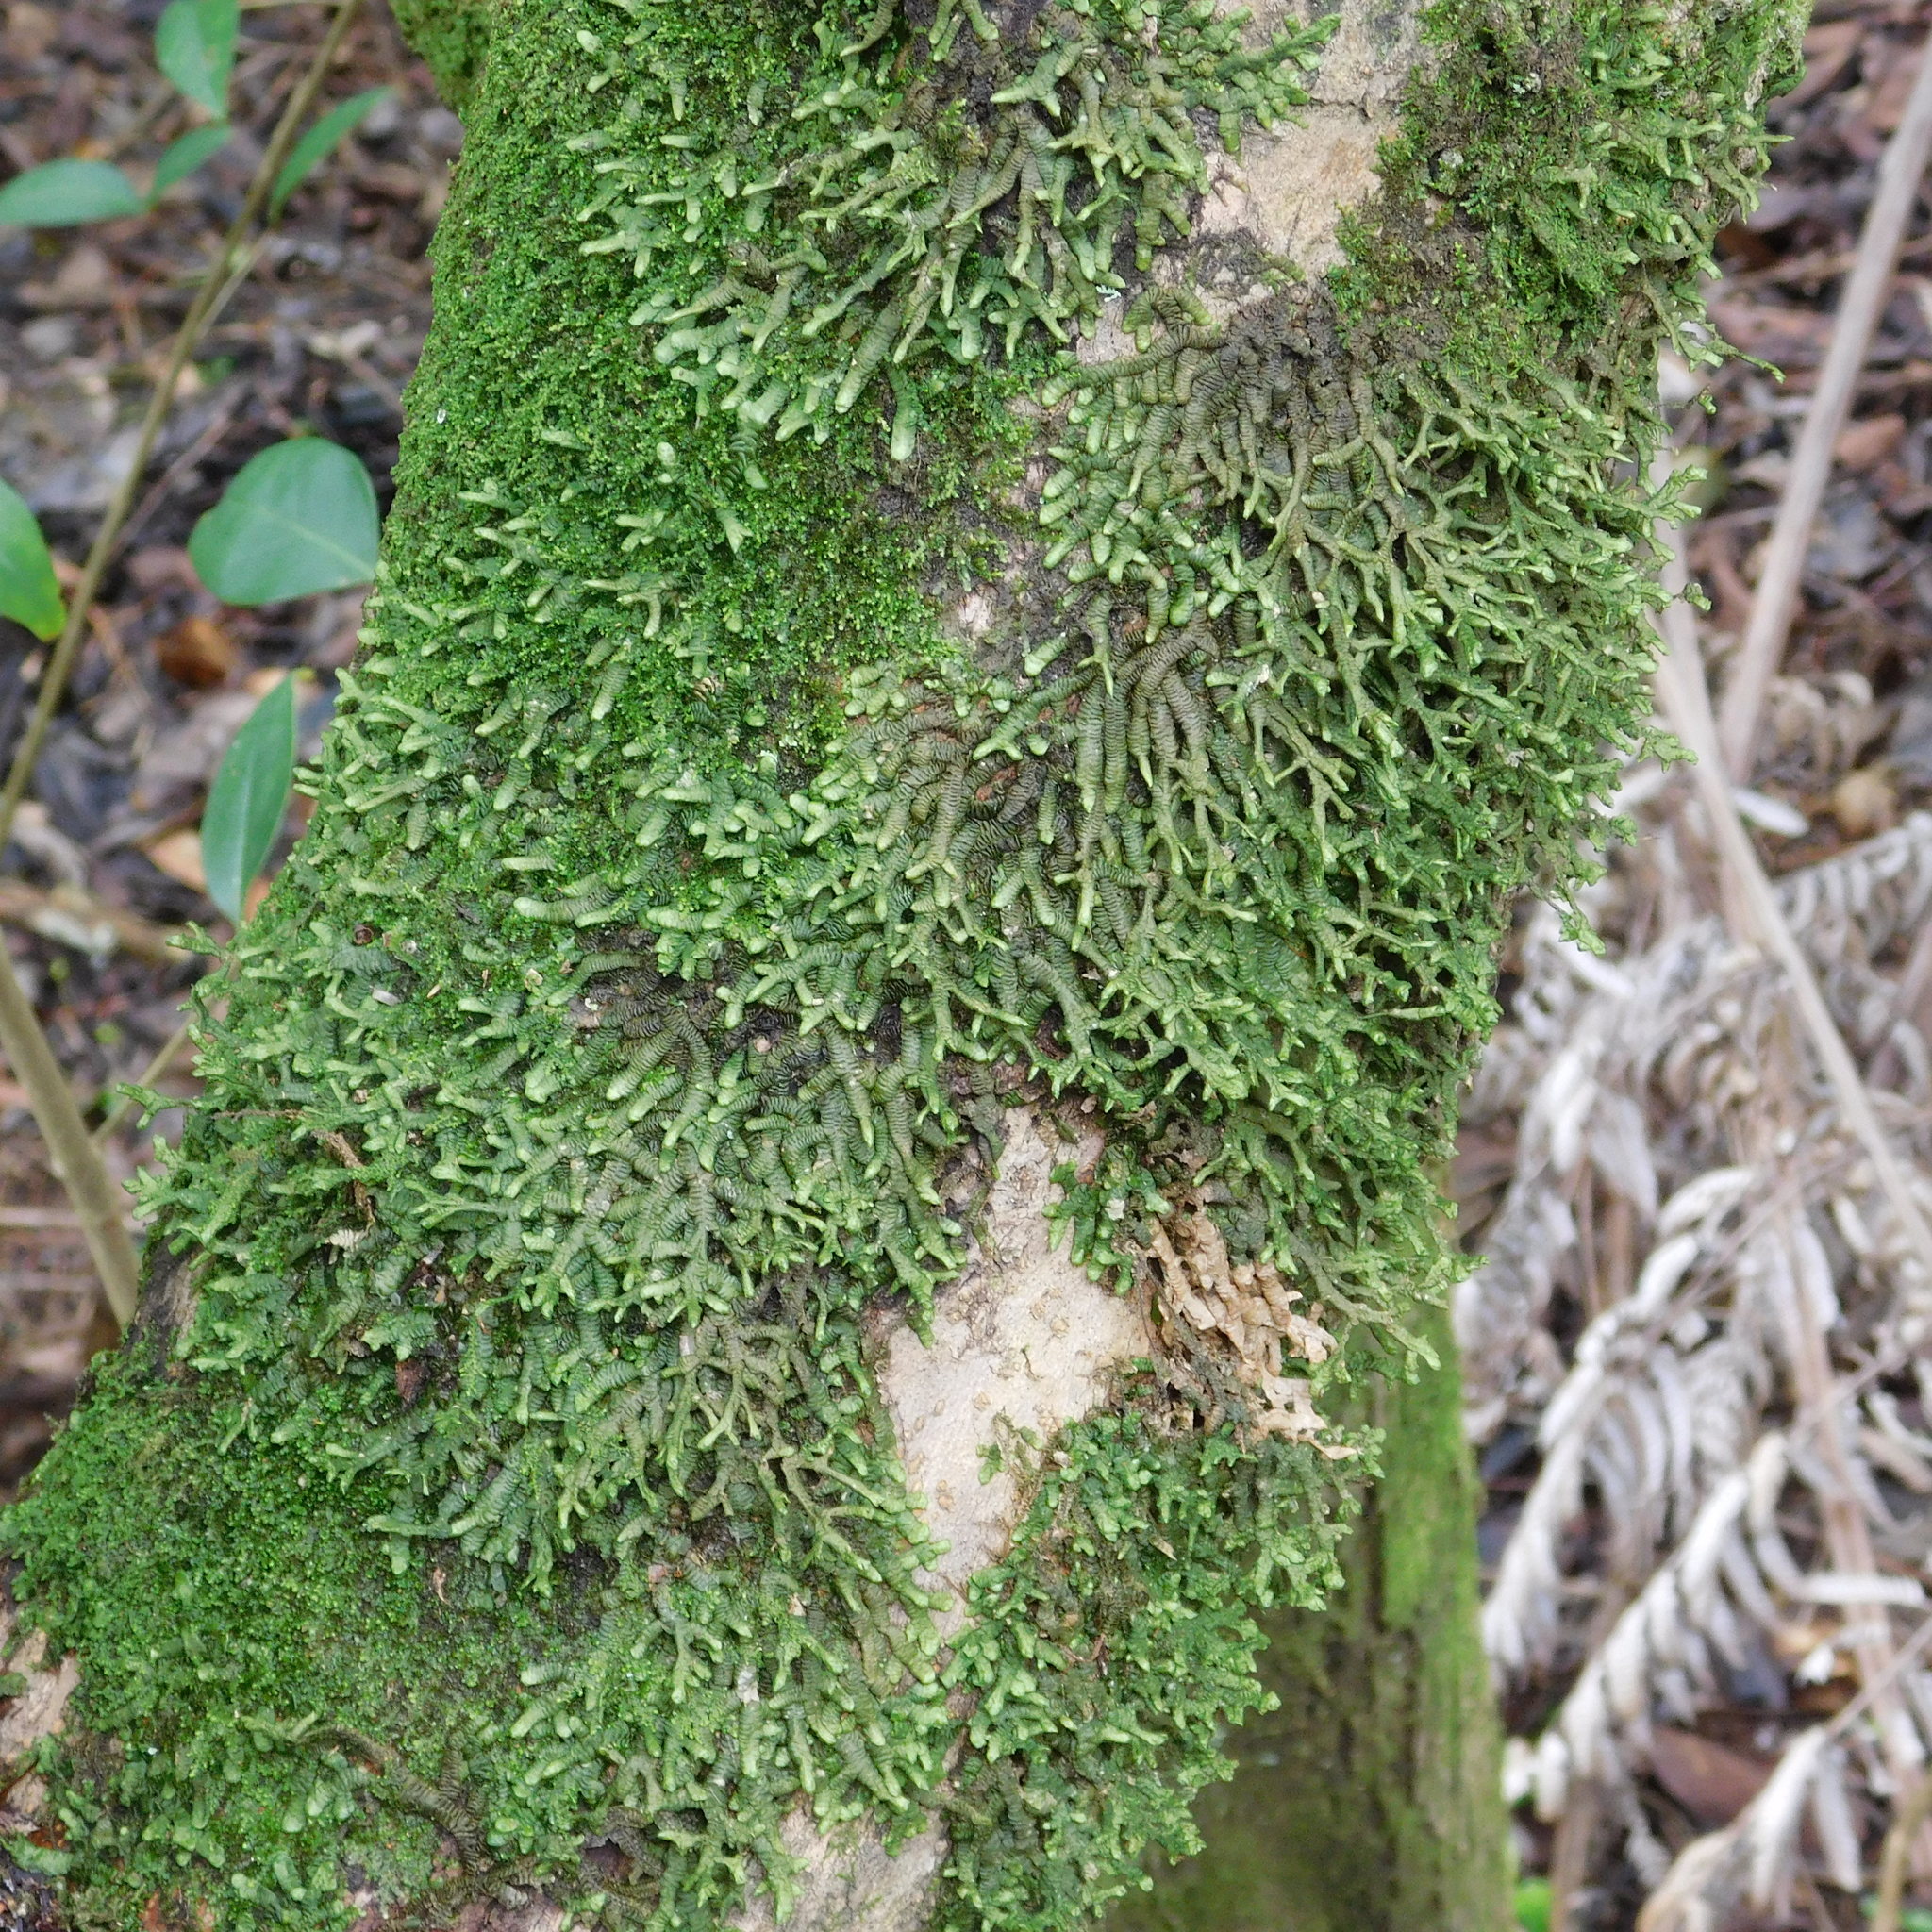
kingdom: Plantae
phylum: Marchantiophyta
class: Jungermanniopsida
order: Porellales
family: Porellaceae
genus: Porella
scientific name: Porella elegantula
